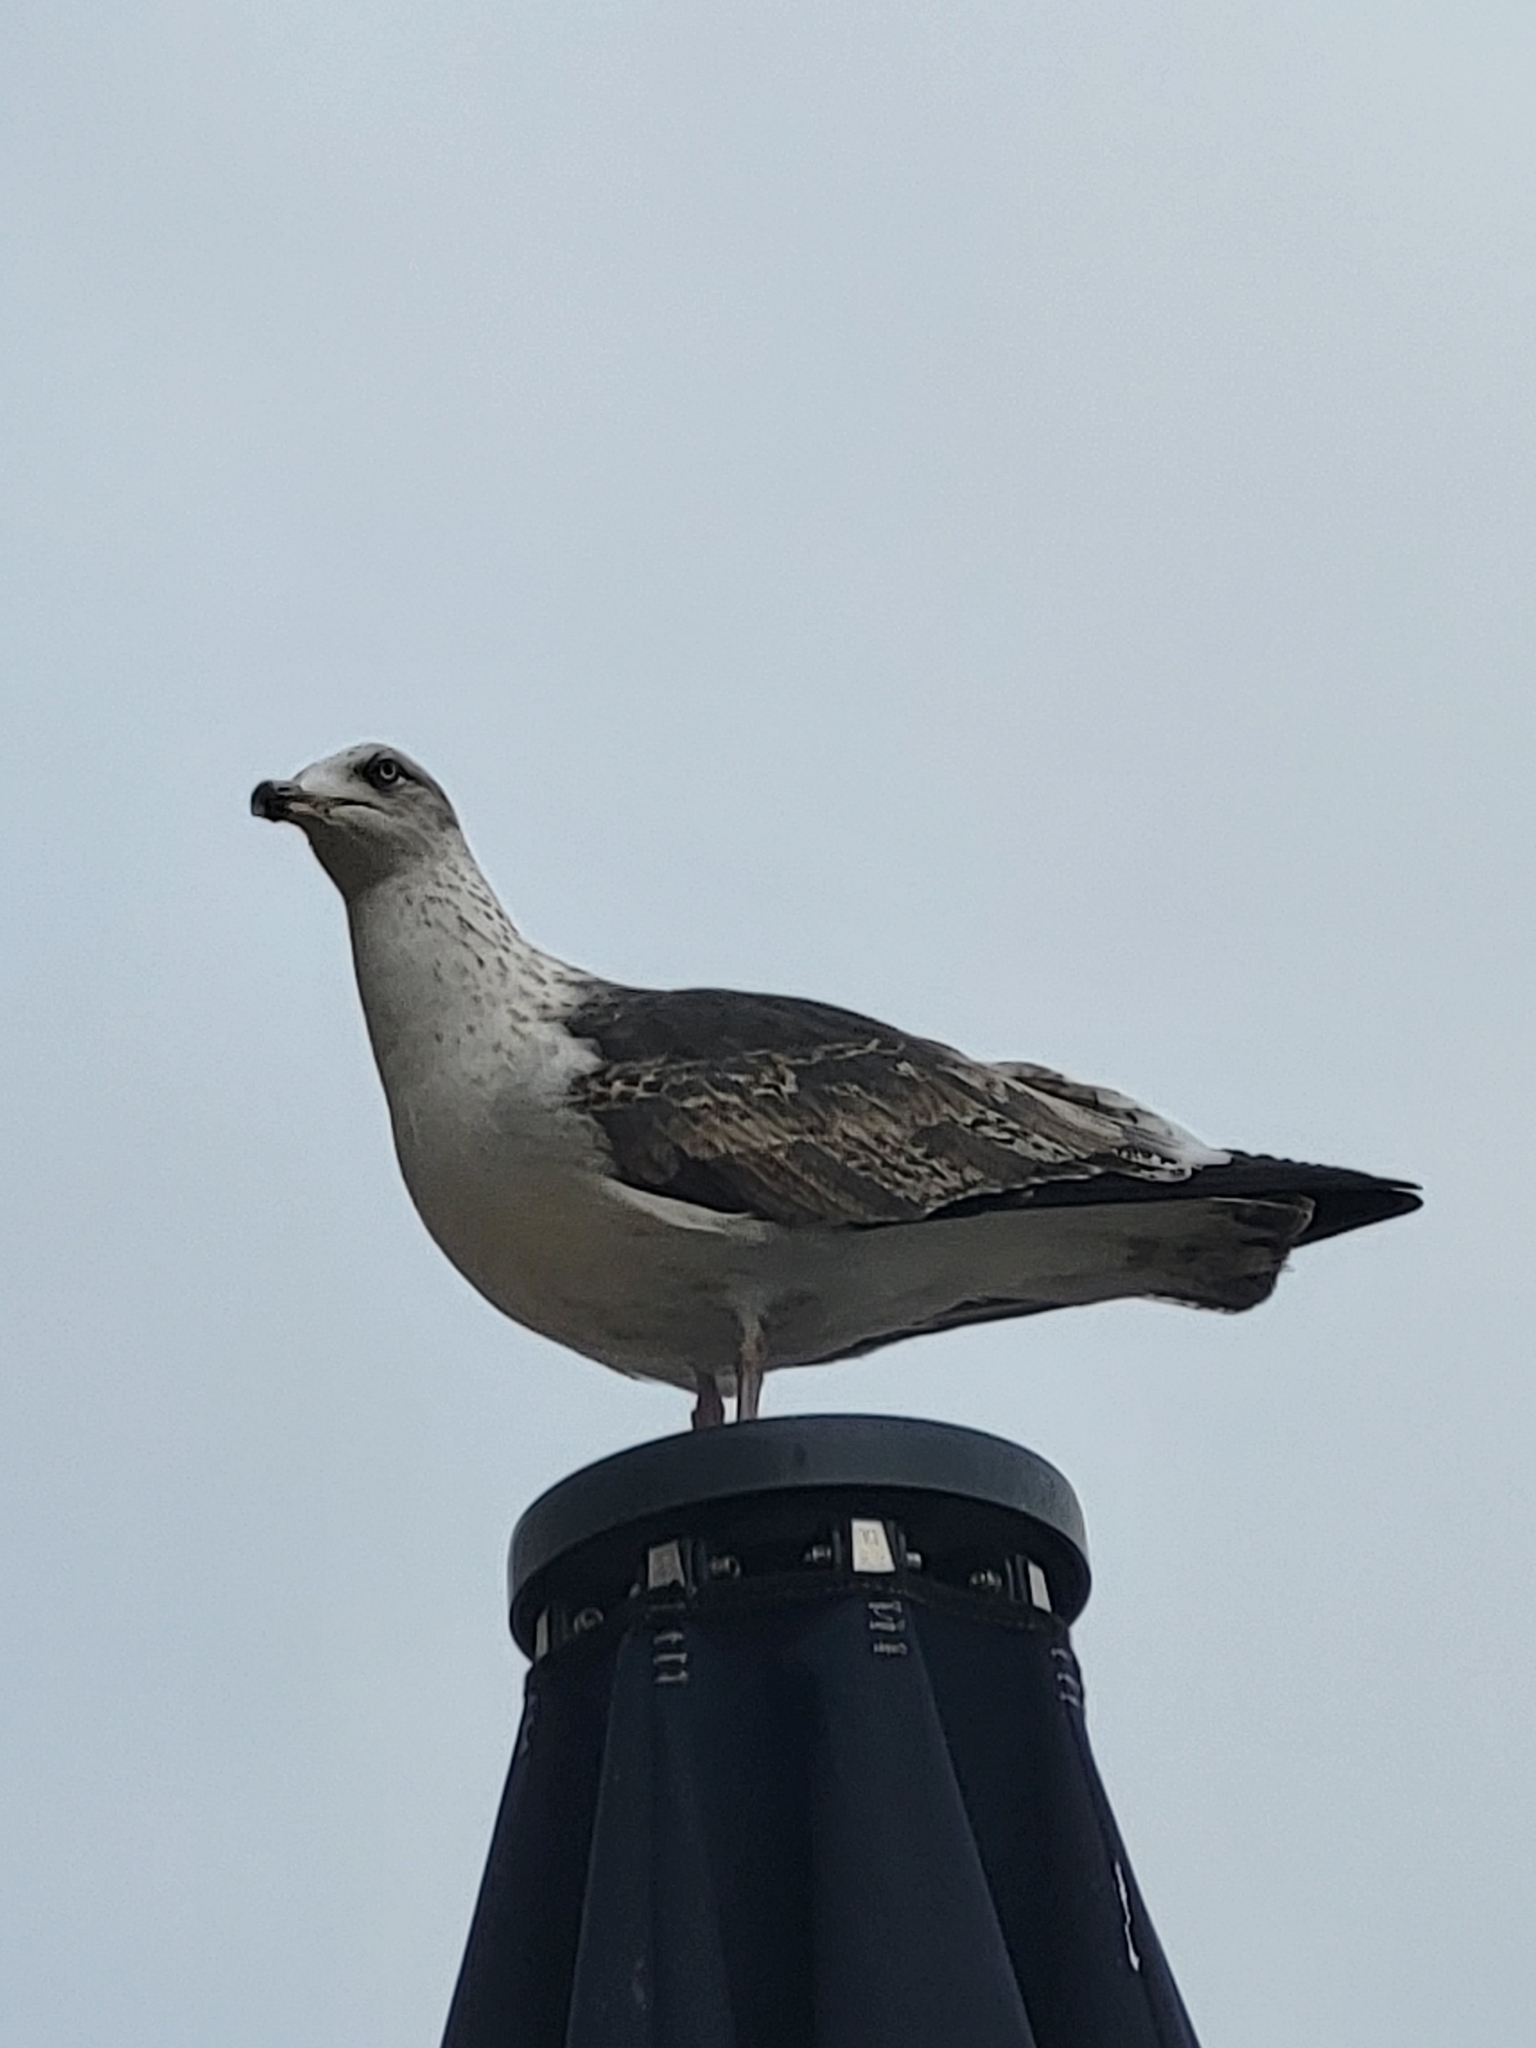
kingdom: Animalia
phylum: Chordata
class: Aves
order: Charadriiformes
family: Laridae
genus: Larus
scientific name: Larus fuscus
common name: Lesser black-backed gull
